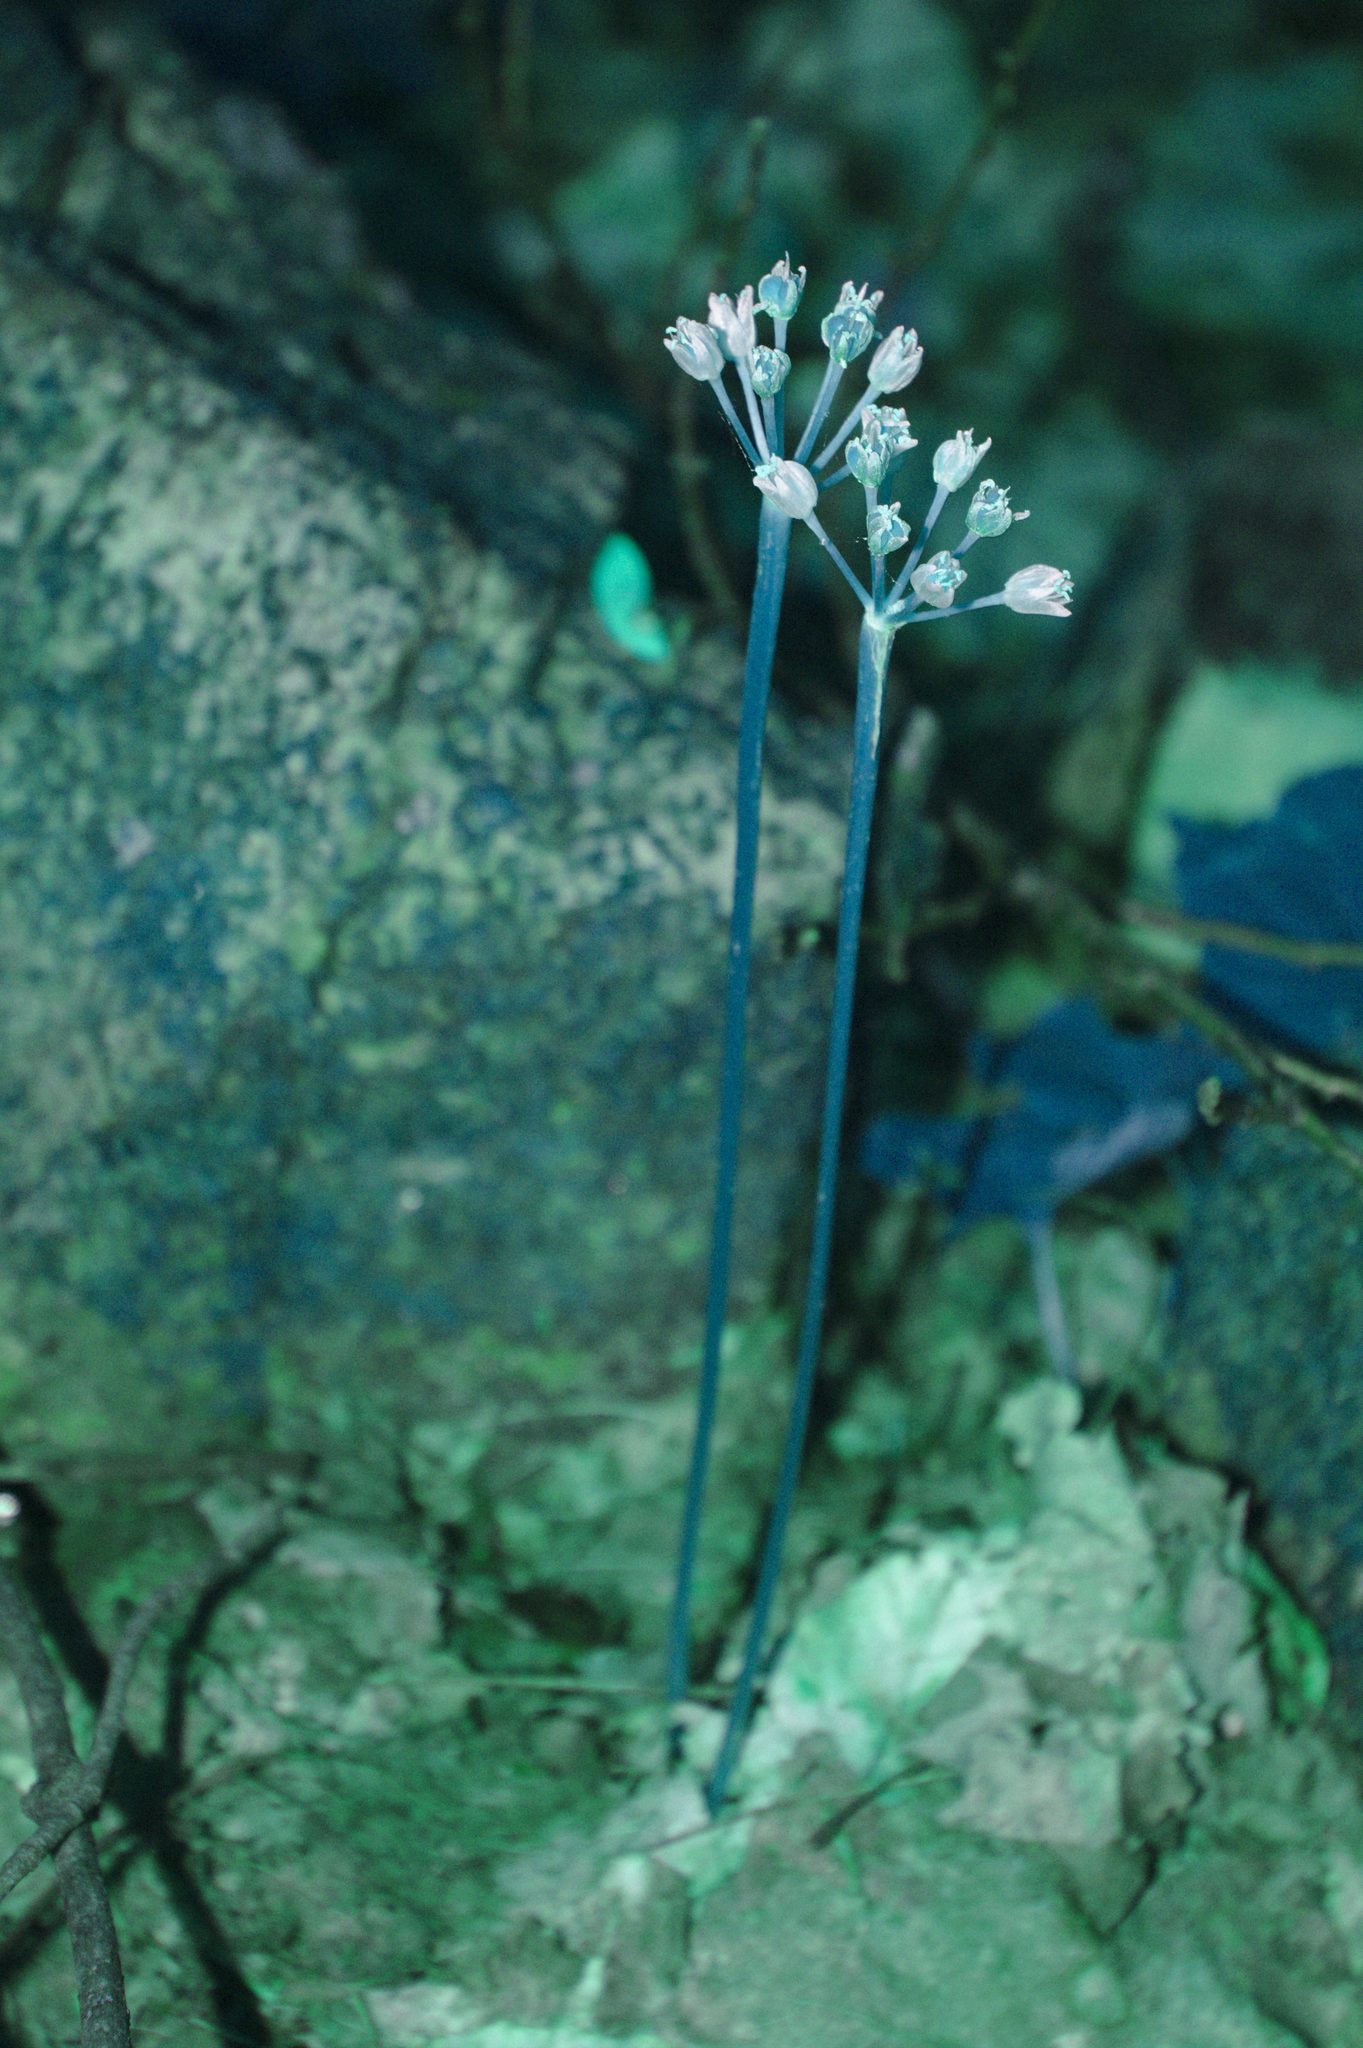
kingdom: Plantae
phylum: Tracheophyta
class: Liliopsida
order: Asparagales
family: Amaryllidaceae
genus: Allium
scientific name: Allium tricoccum
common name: Ramp
